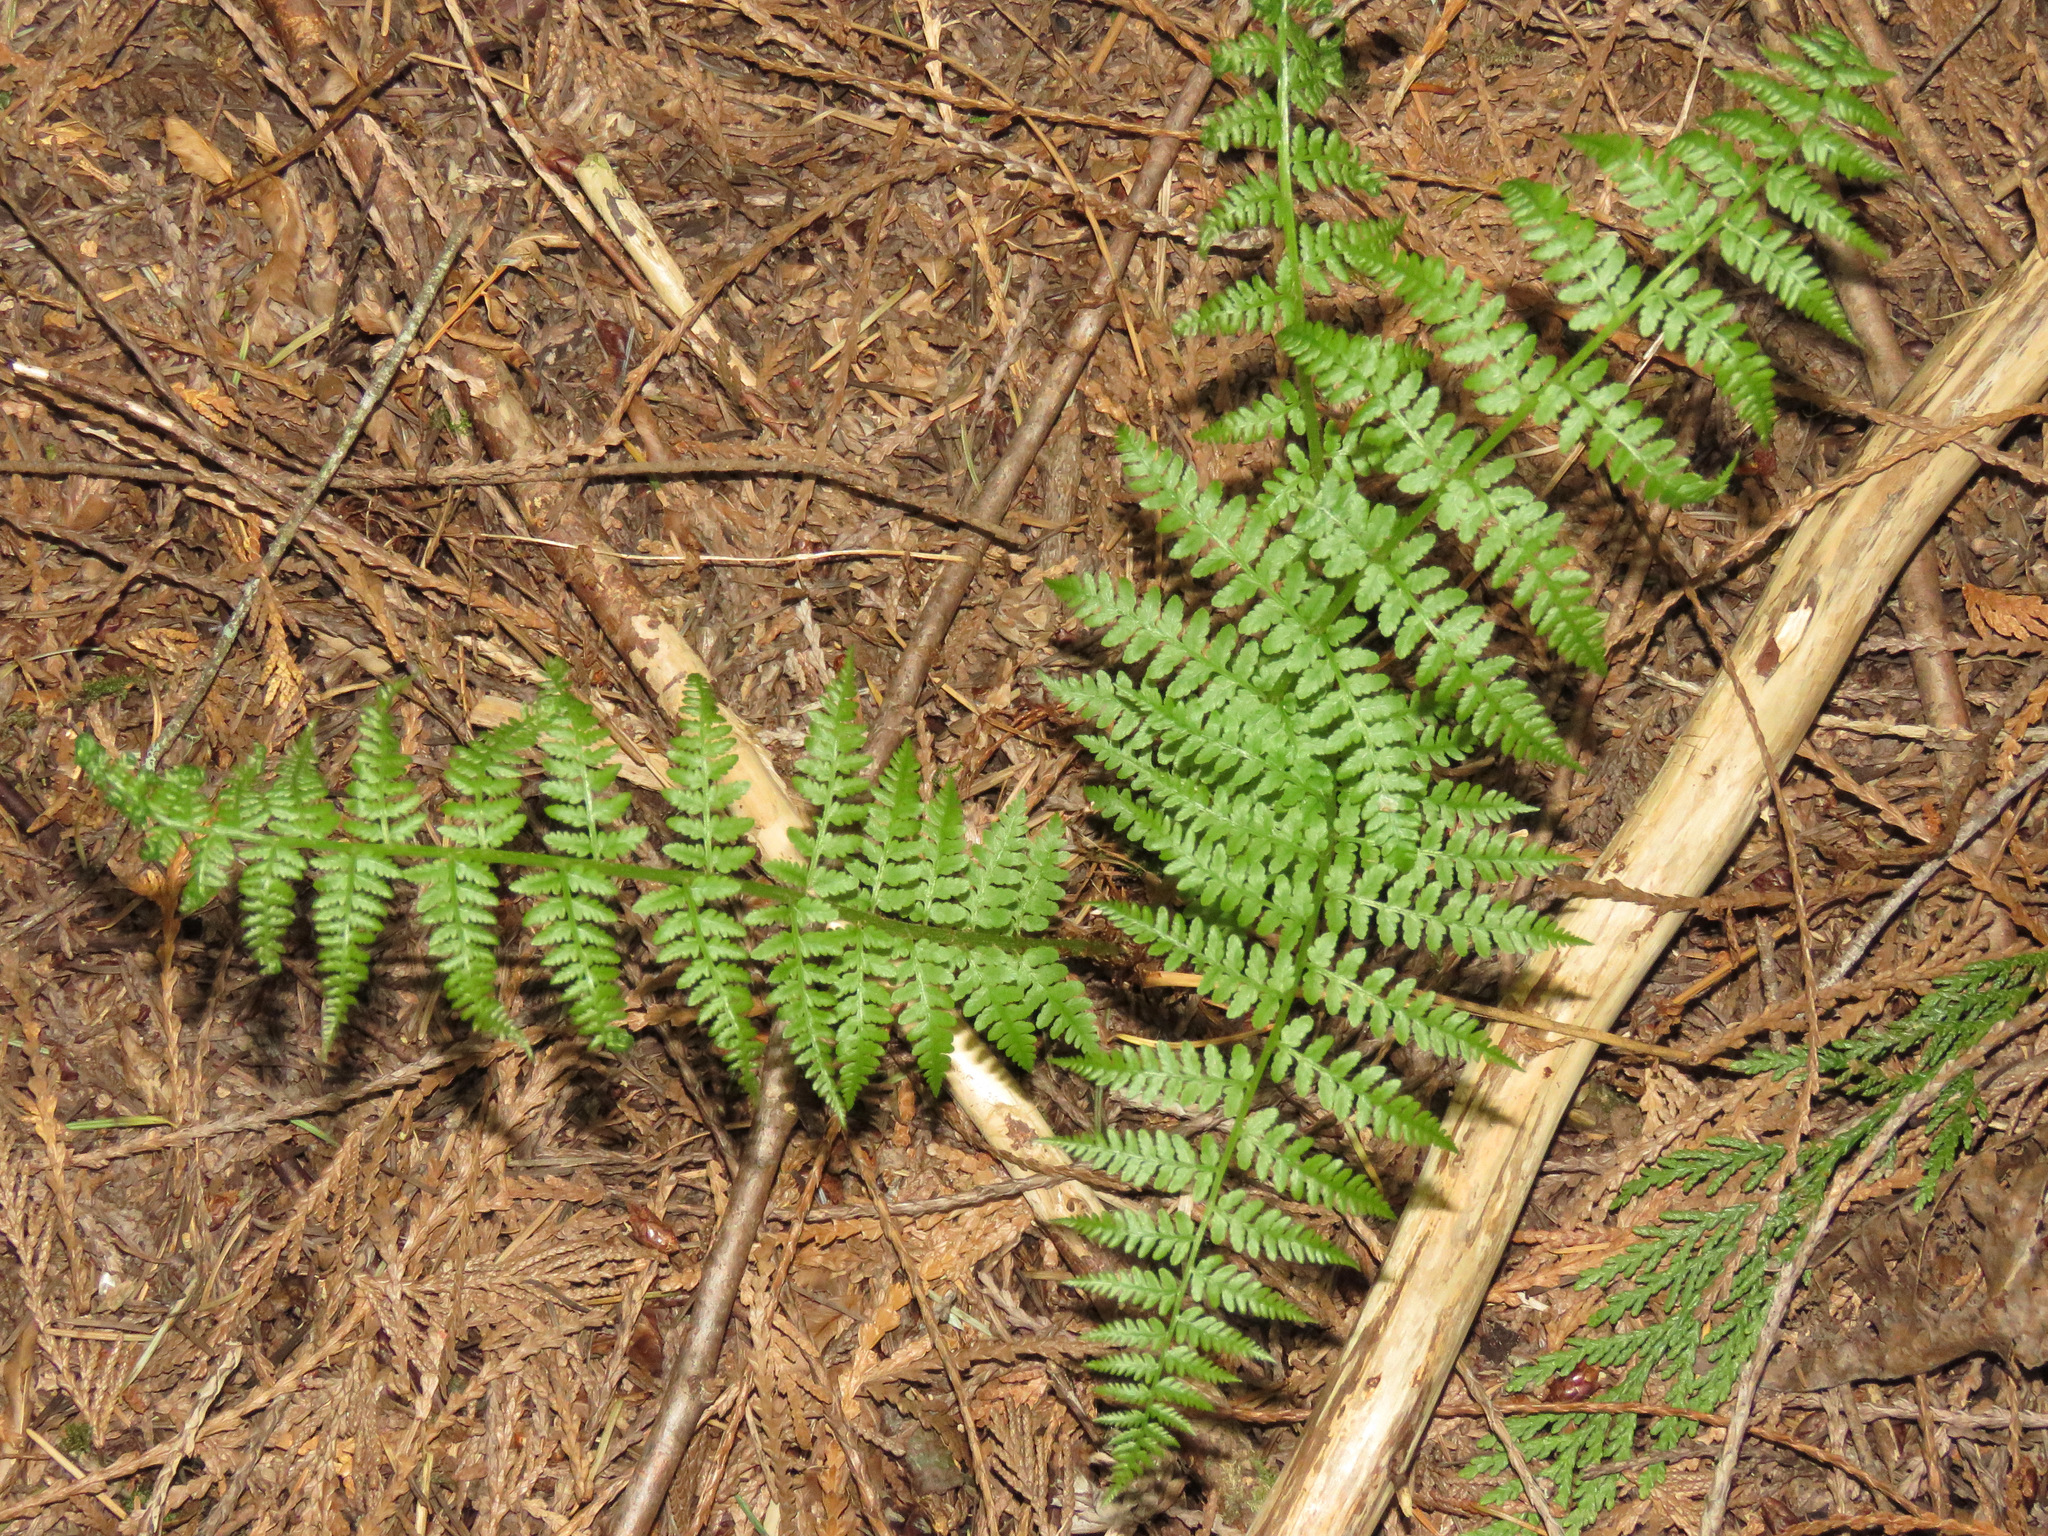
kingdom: Plantae
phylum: Tracheophyta
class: Polypodiopsida
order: Polypodiales
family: Athyriaceae
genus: Athyrium
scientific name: Athyrium cyclosorum
